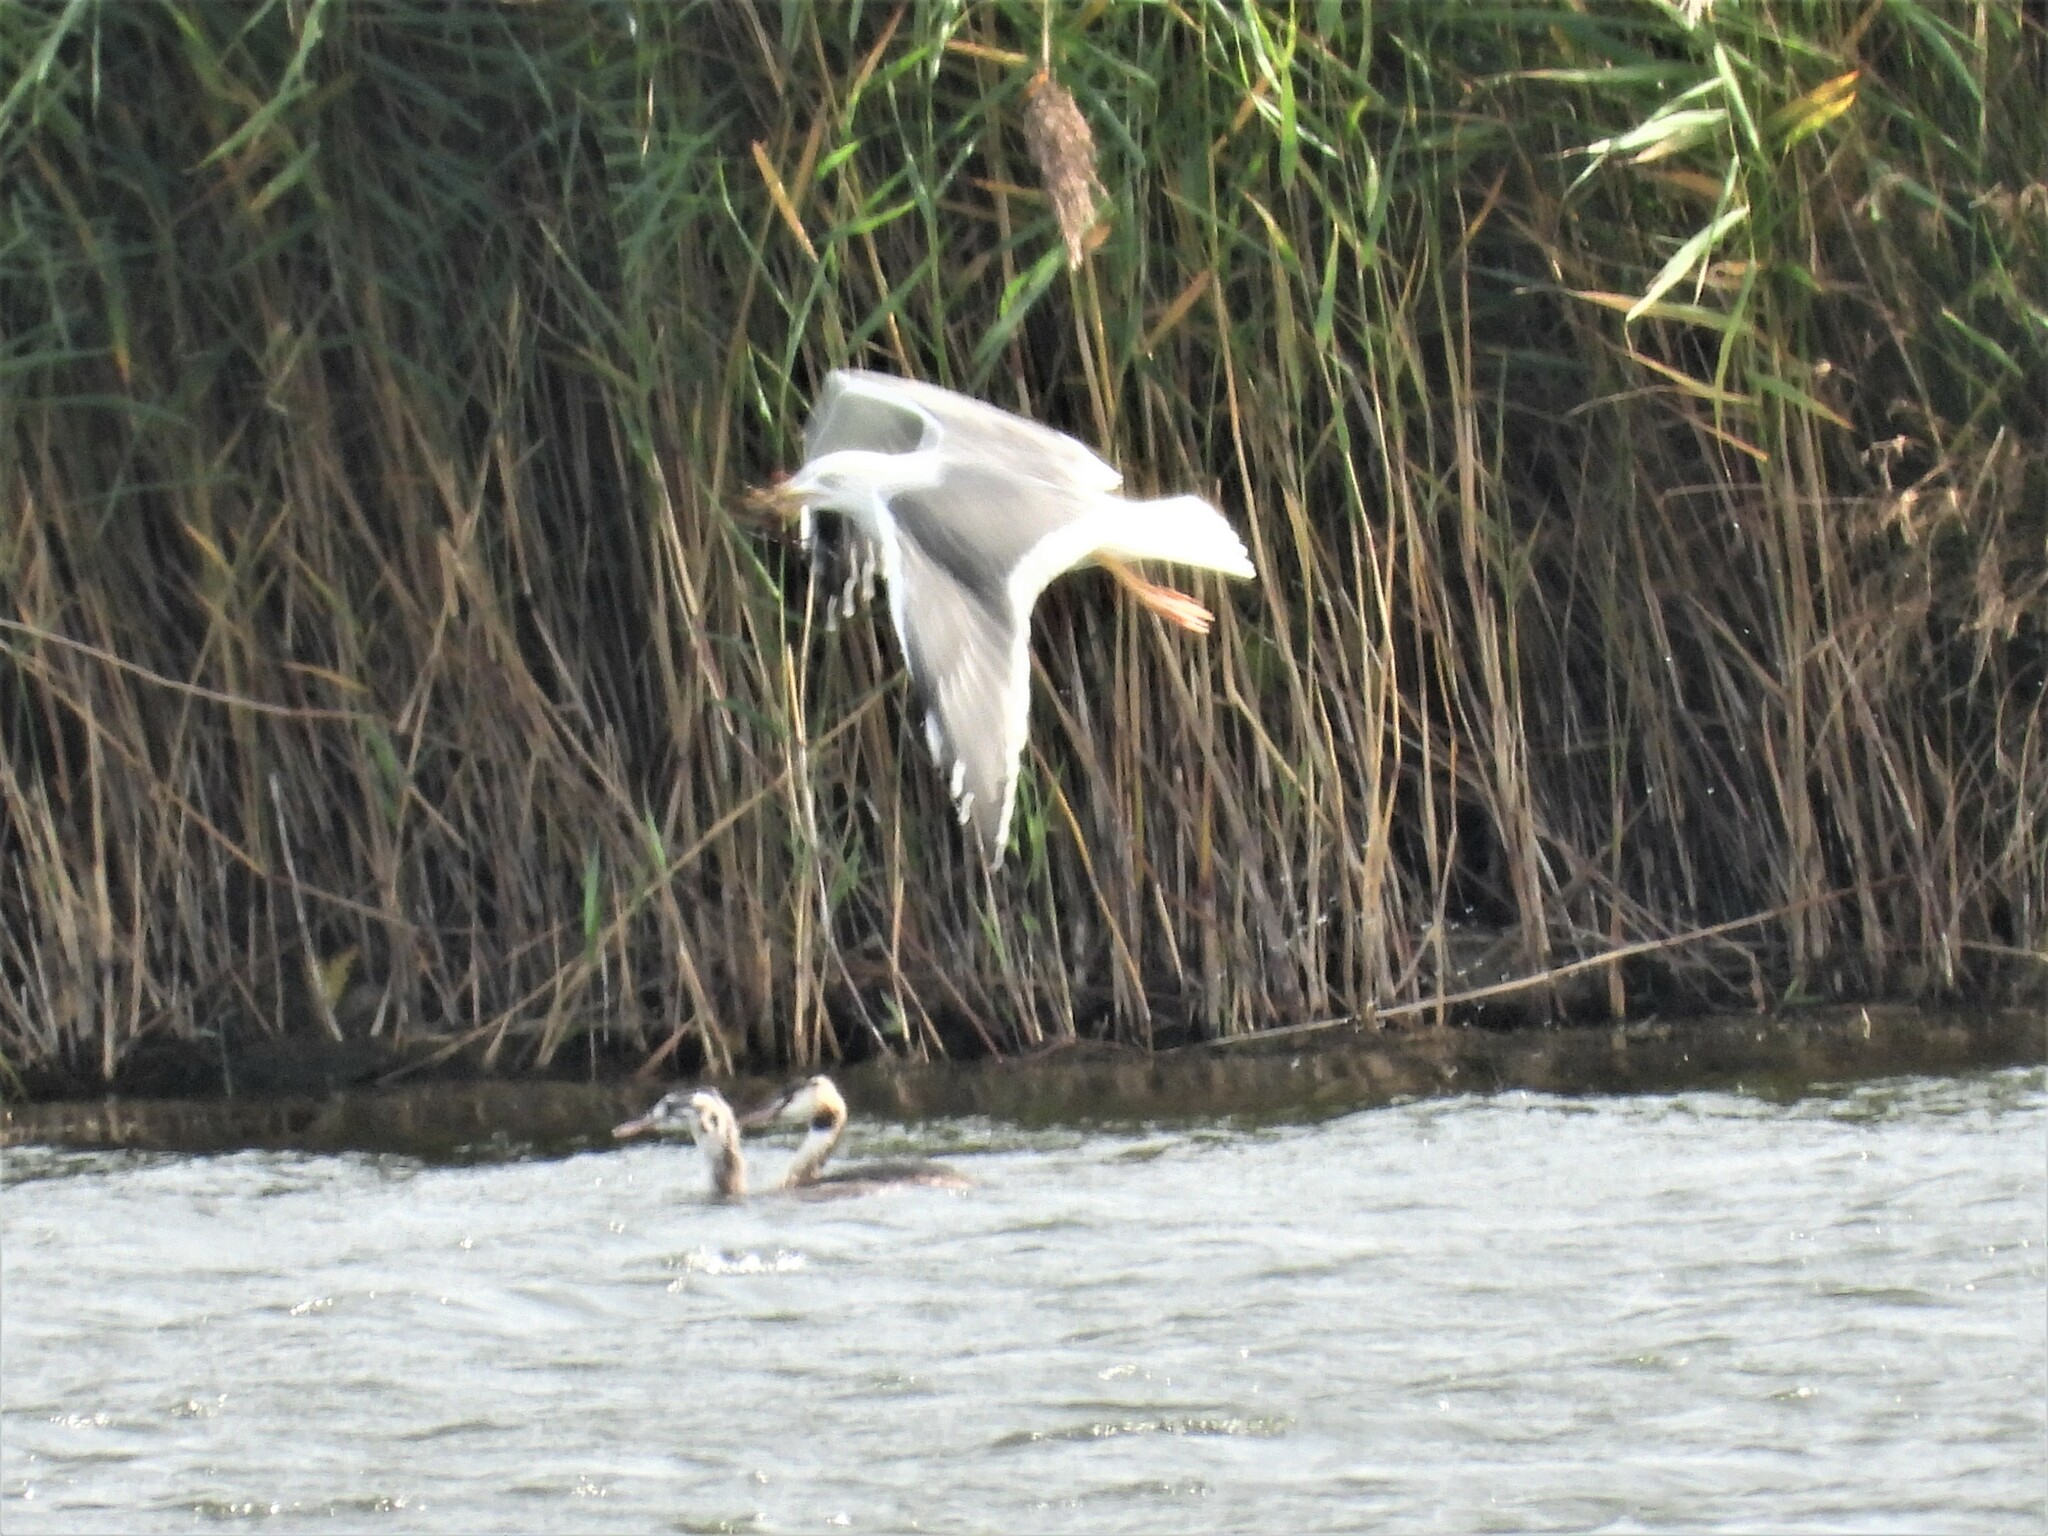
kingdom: Animalia
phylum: Chordata
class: Aves
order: Charadriiformes
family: Laridae
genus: Larus
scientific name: Larus fuscus
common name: Lesser black-backed gull
